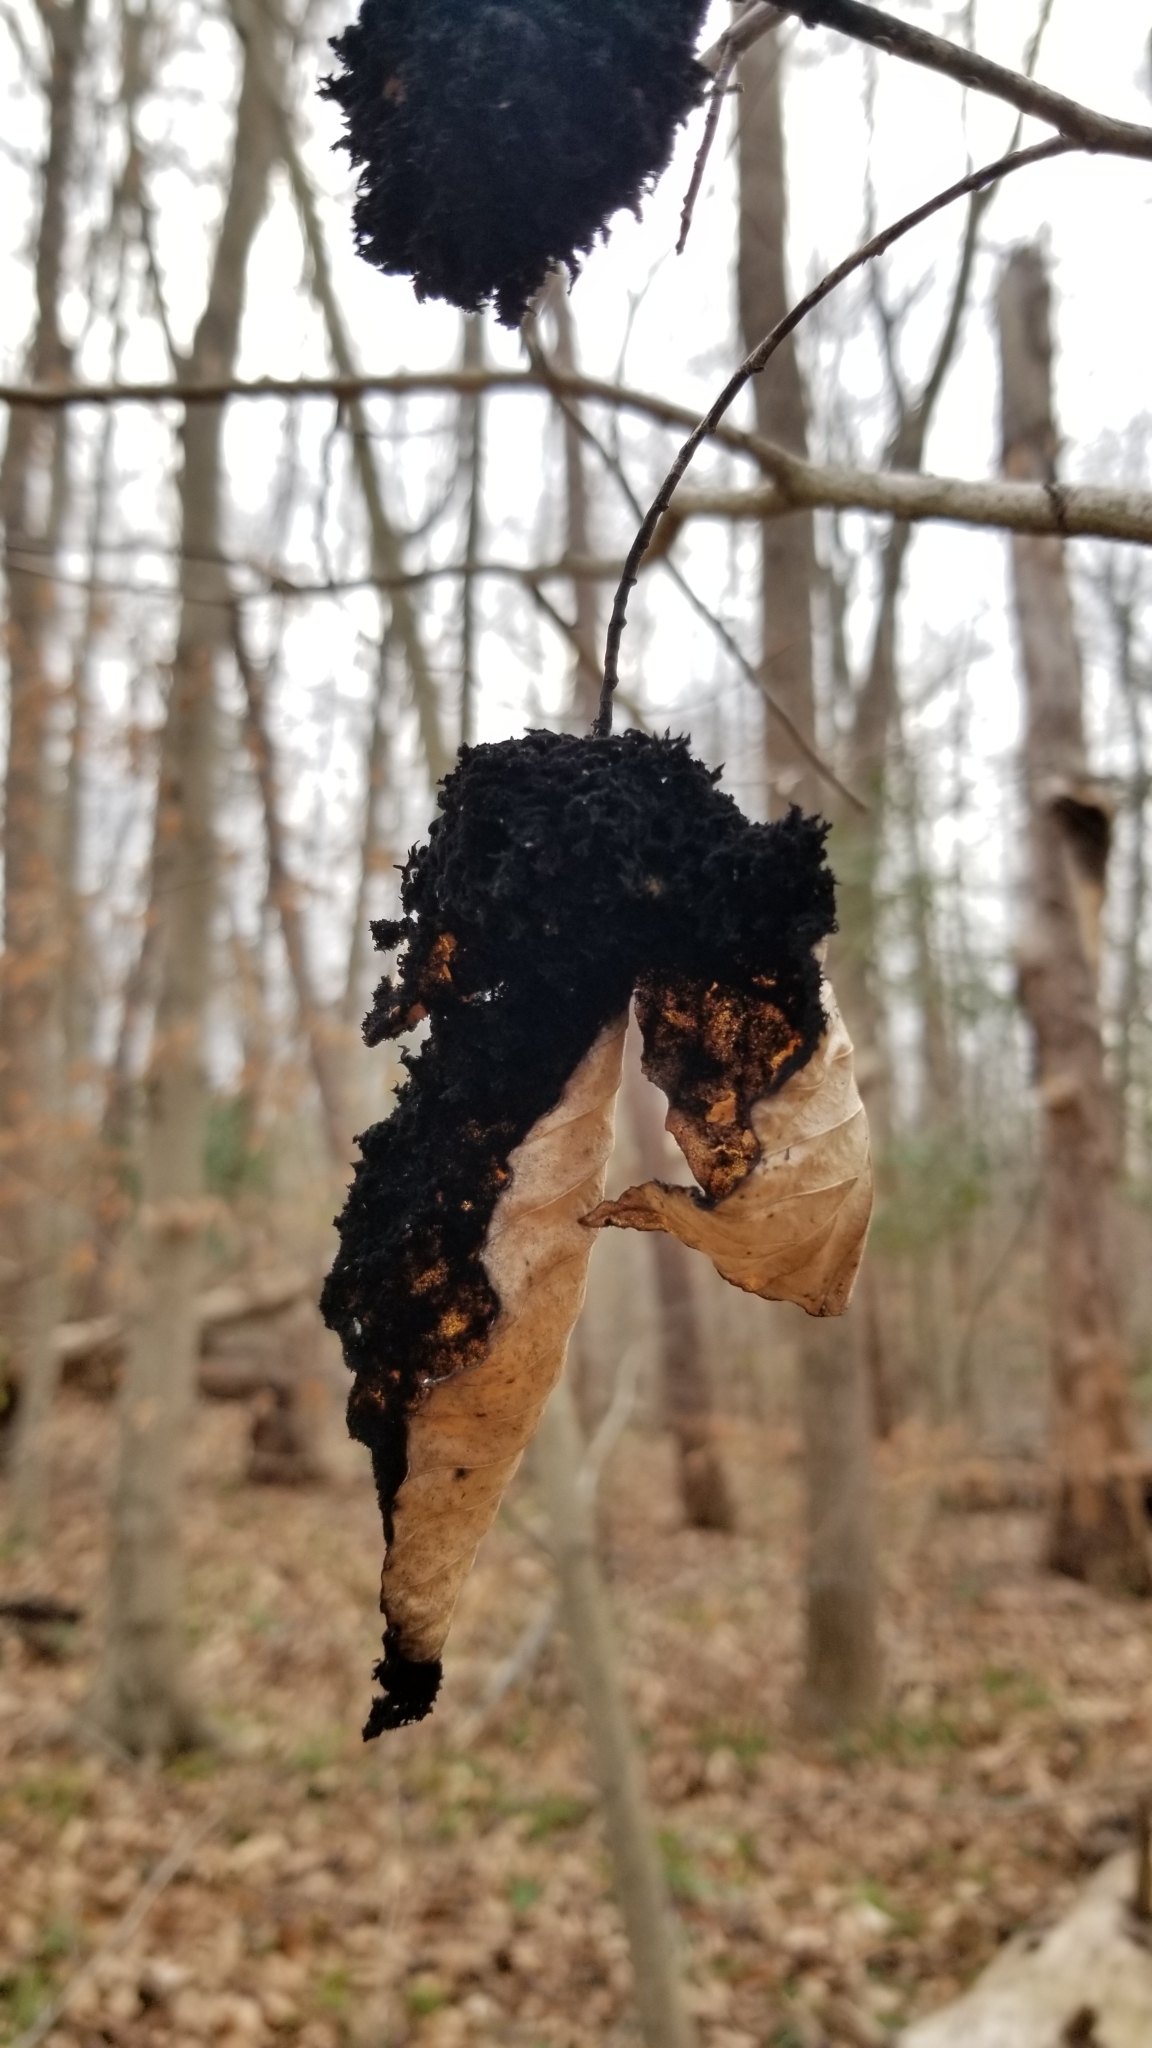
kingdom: Fungi
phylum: Ascomycota
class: Dothideomycetes
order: Capnodiales
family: Capnodiaceae
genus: Scorias
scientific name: Scorias spongiosa
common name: Black sooty mold
